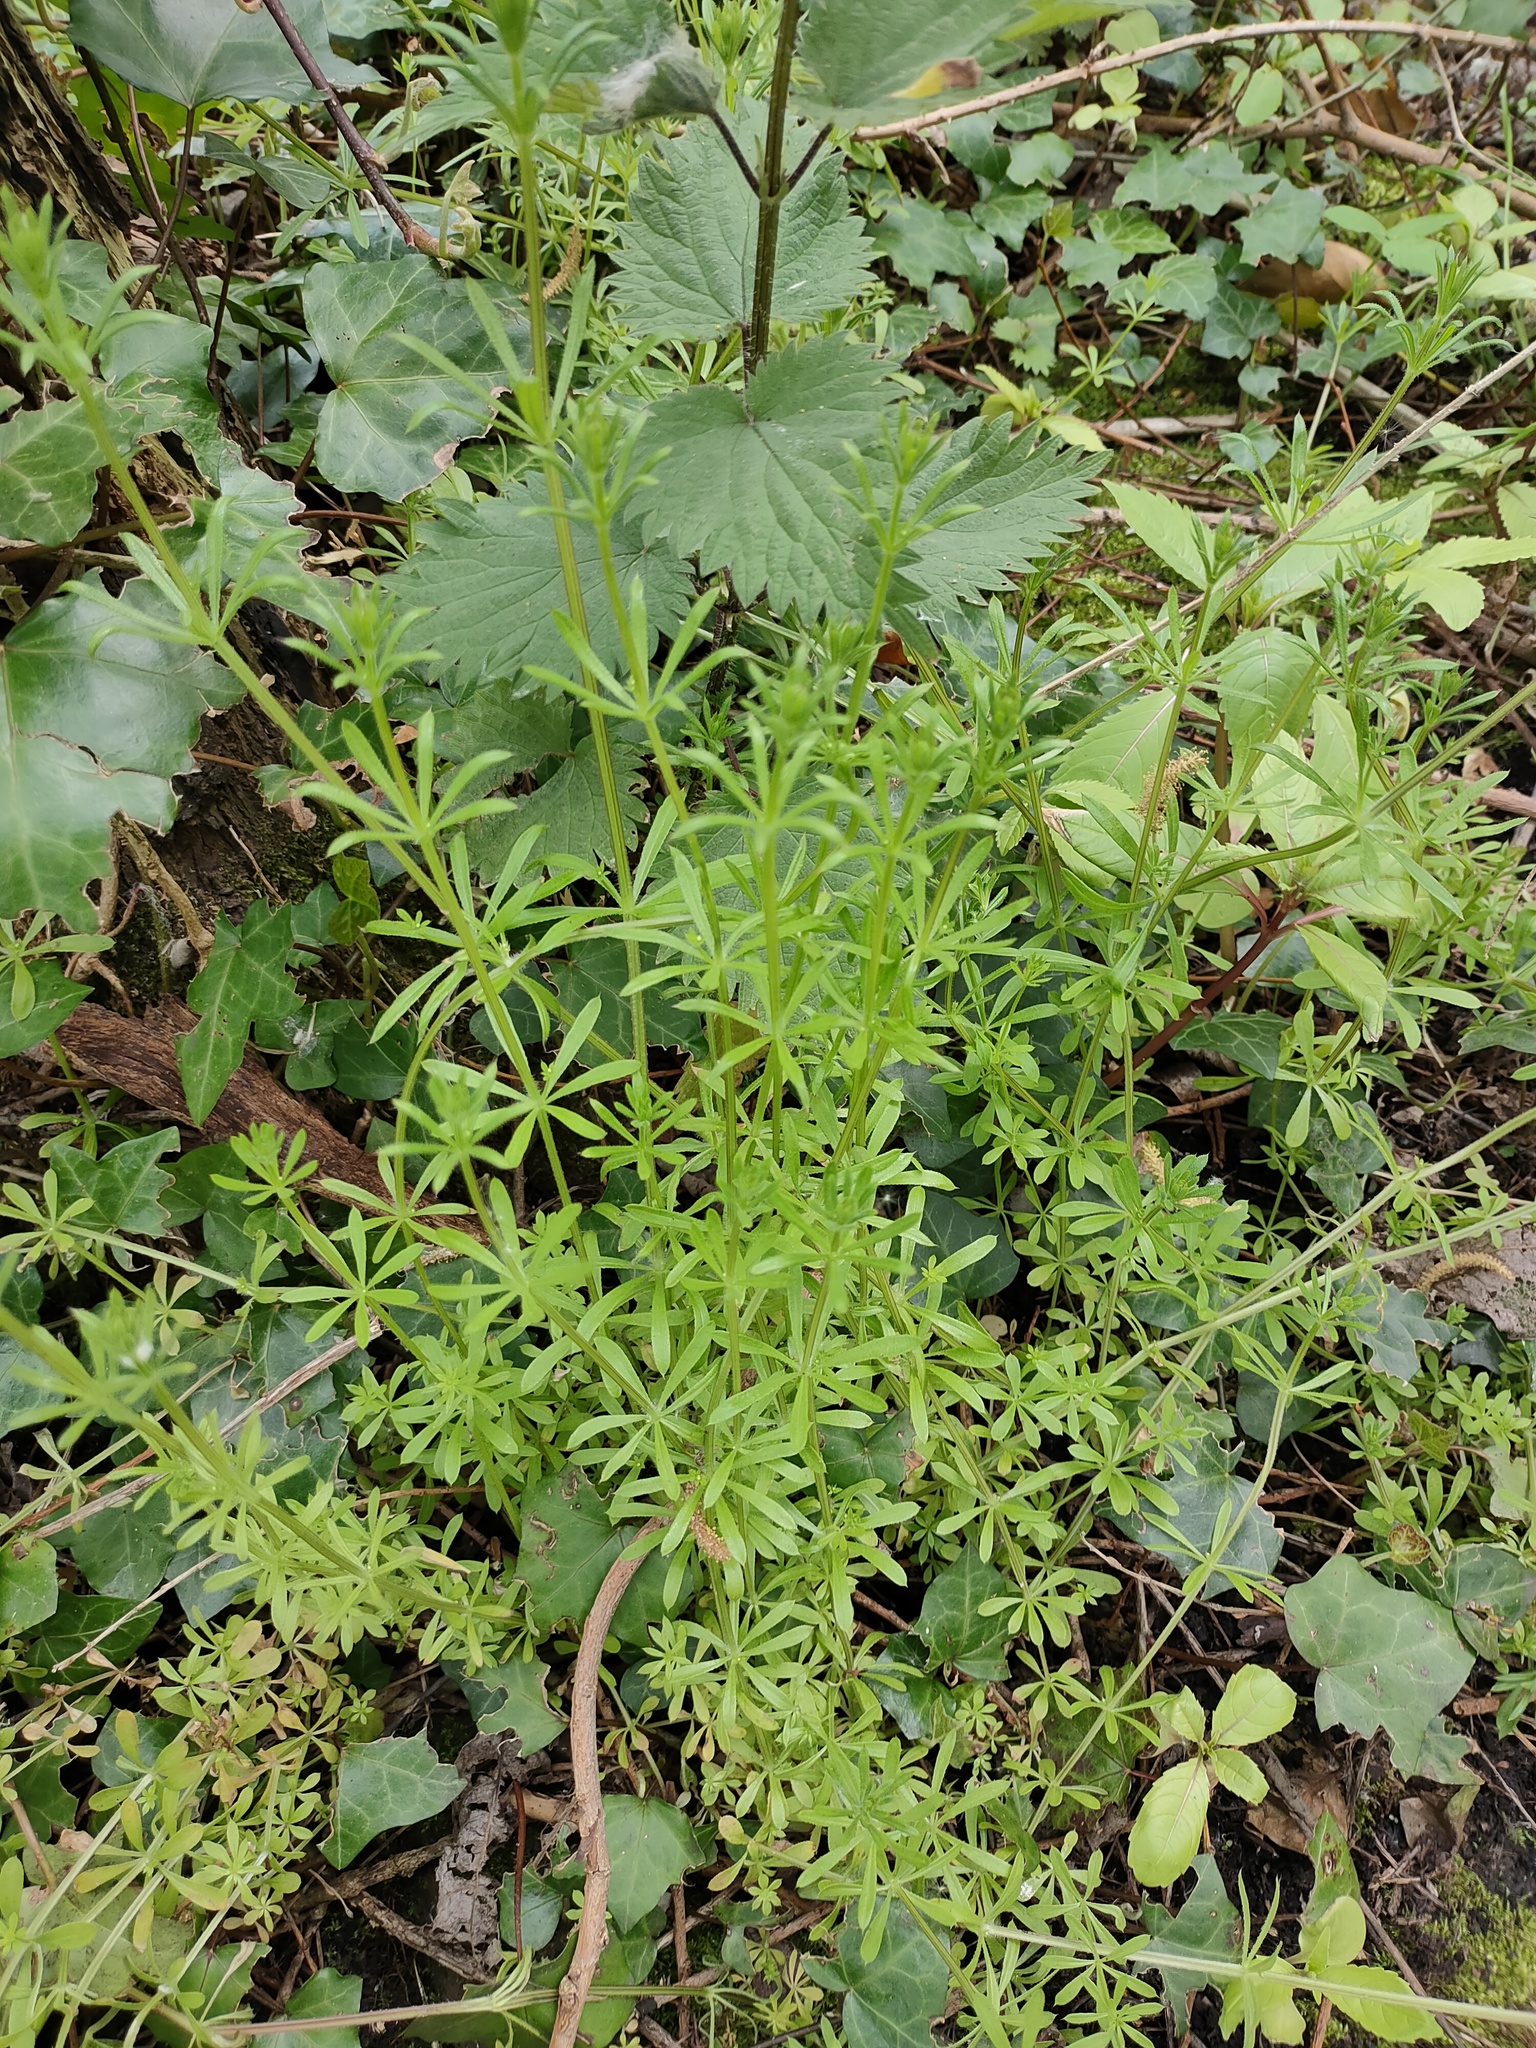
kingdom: Plantae
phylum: Tracheophyta
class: Magnoliopsida
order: Gentianales
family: Rubiaceae
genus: Galium
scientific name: Galium aparine
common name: Cleavers
